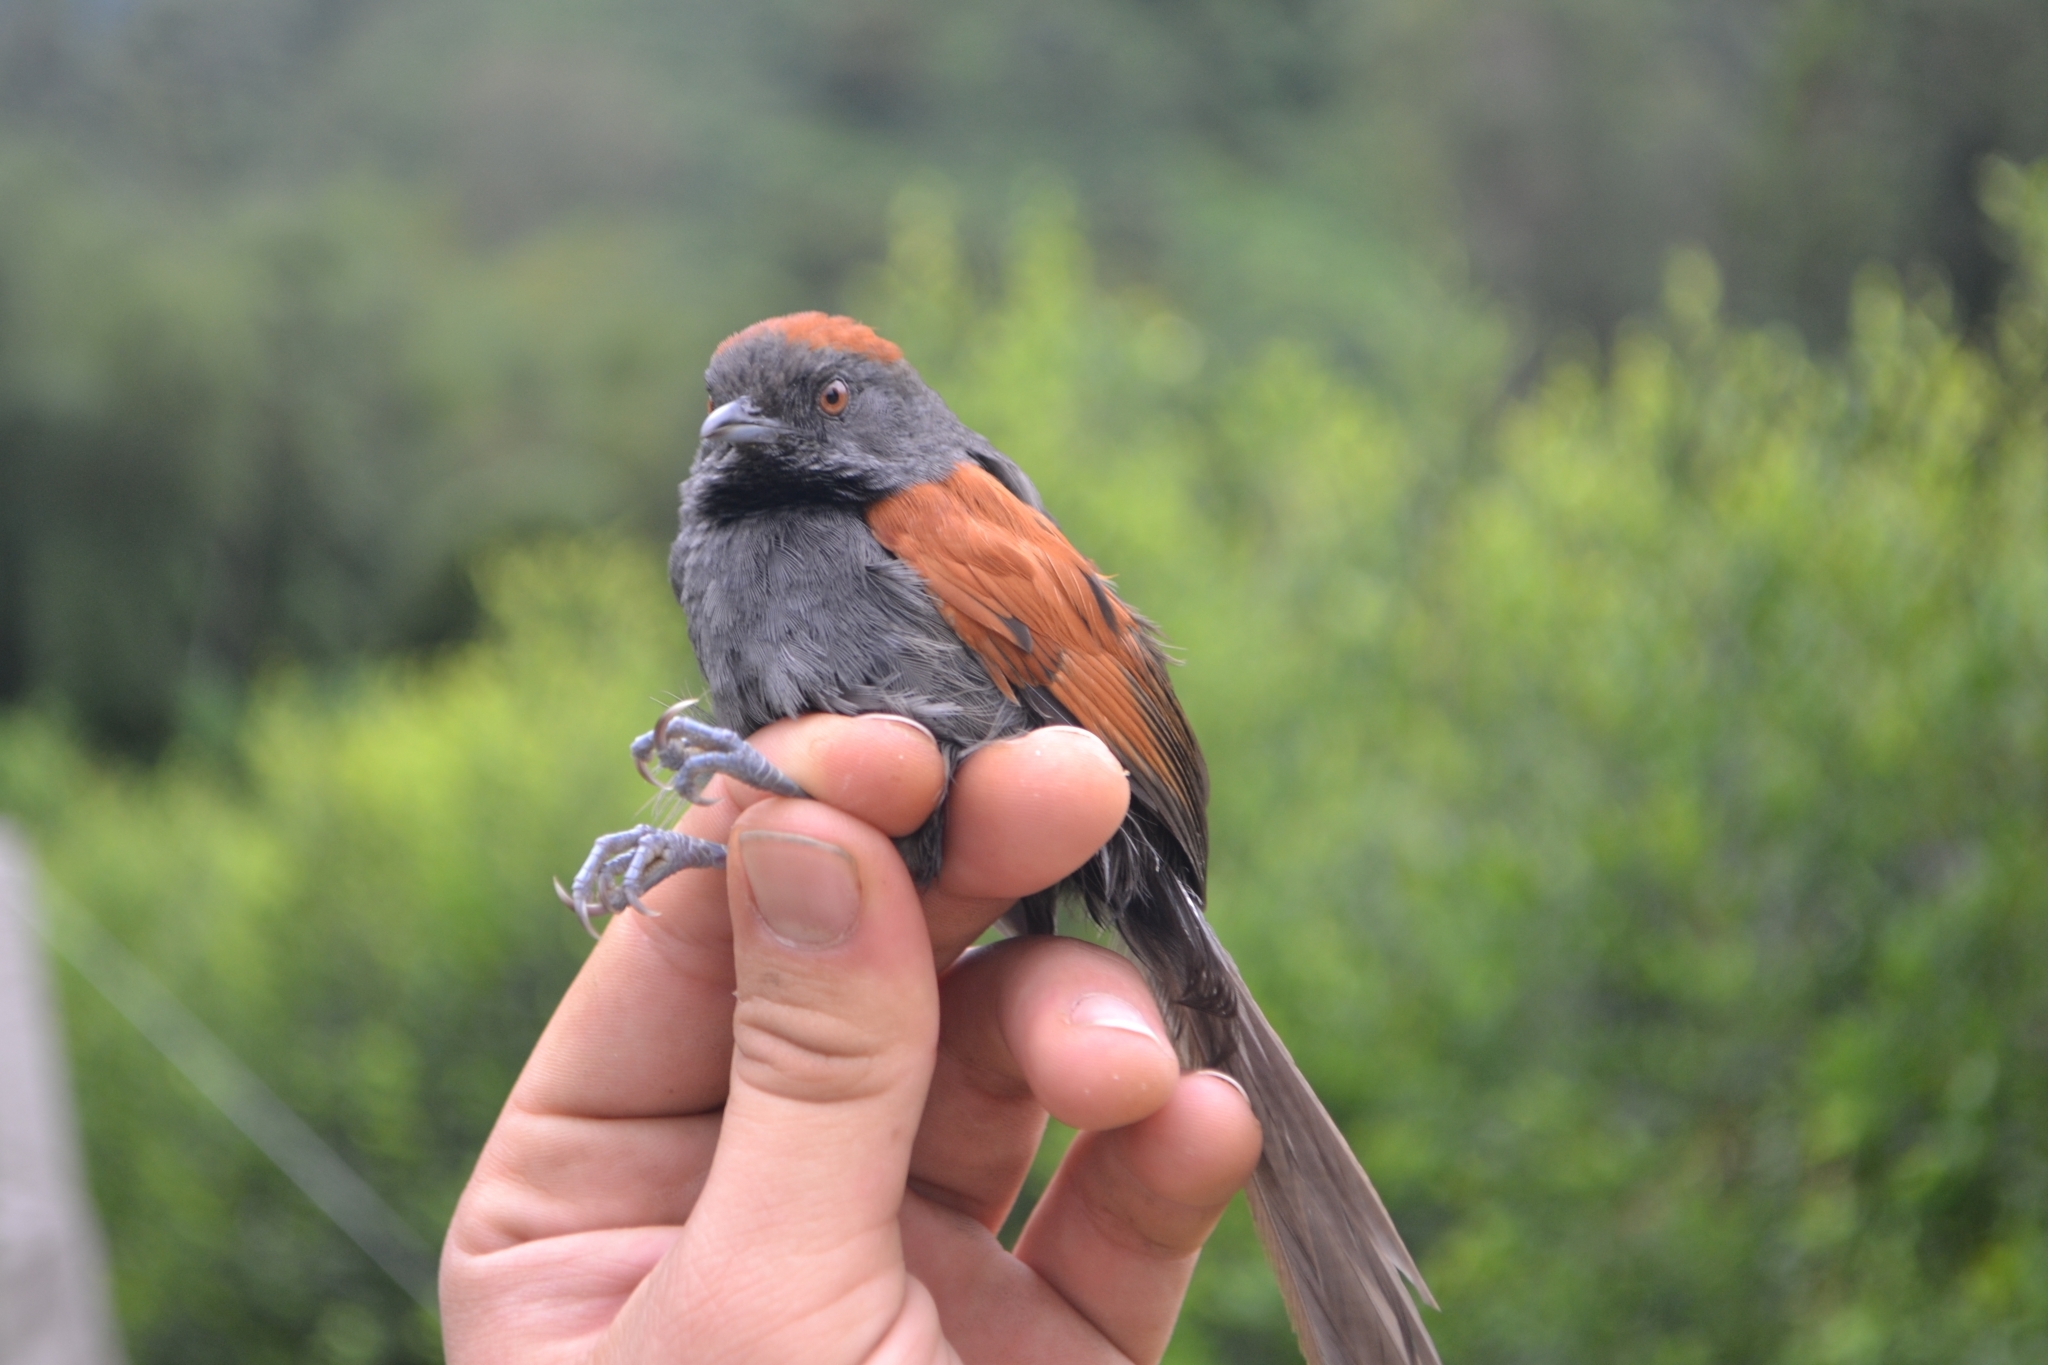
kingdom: Animalia
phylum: Chordata
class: Aves
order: Passeriformes
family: Furnariidae
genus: Synallaxis
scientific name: Synallaxis brachyura
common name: Slaty spinetail
